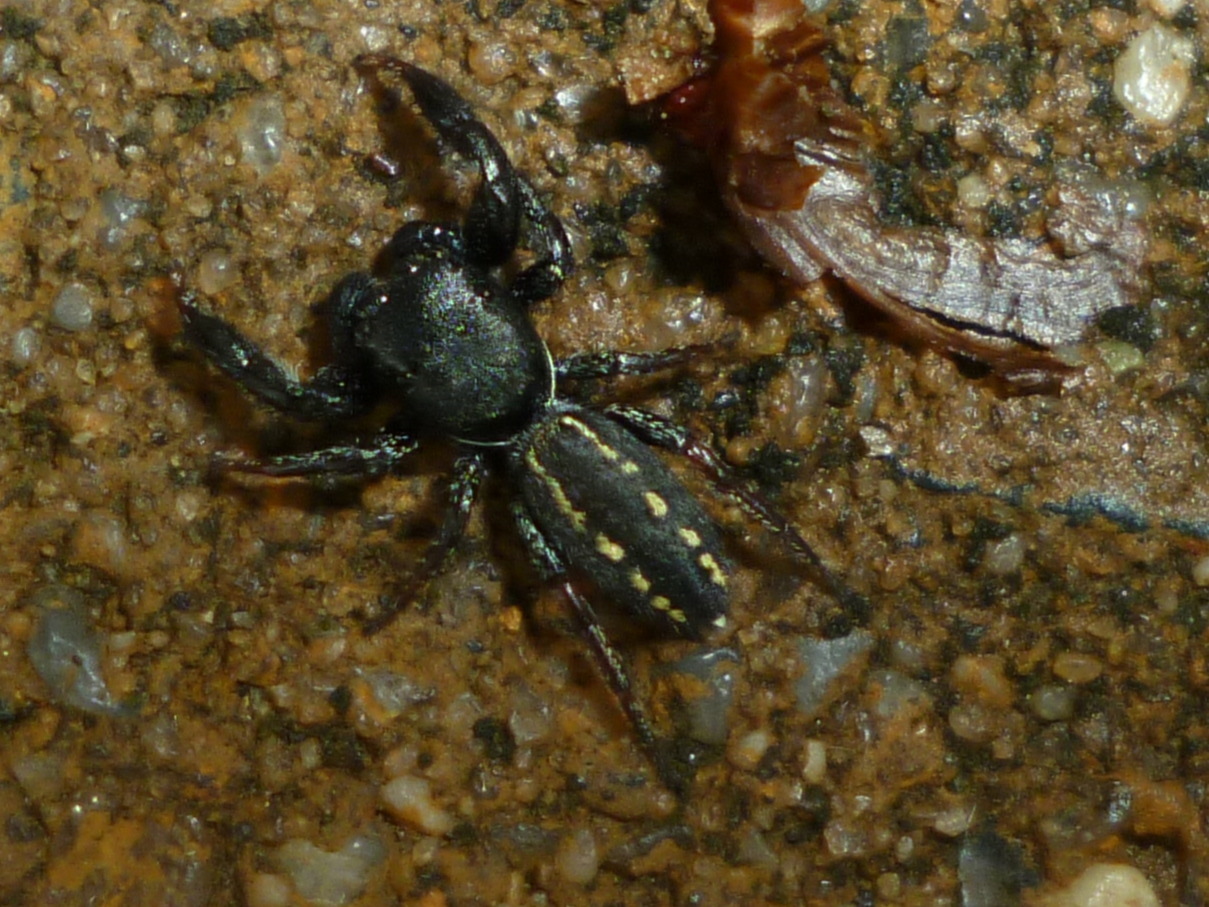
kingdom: Animalia
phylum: Arthropoda
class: Arachnida
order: Araneae
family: Salticidae
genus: Metacyrba
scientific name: Metacyrba taeniola
